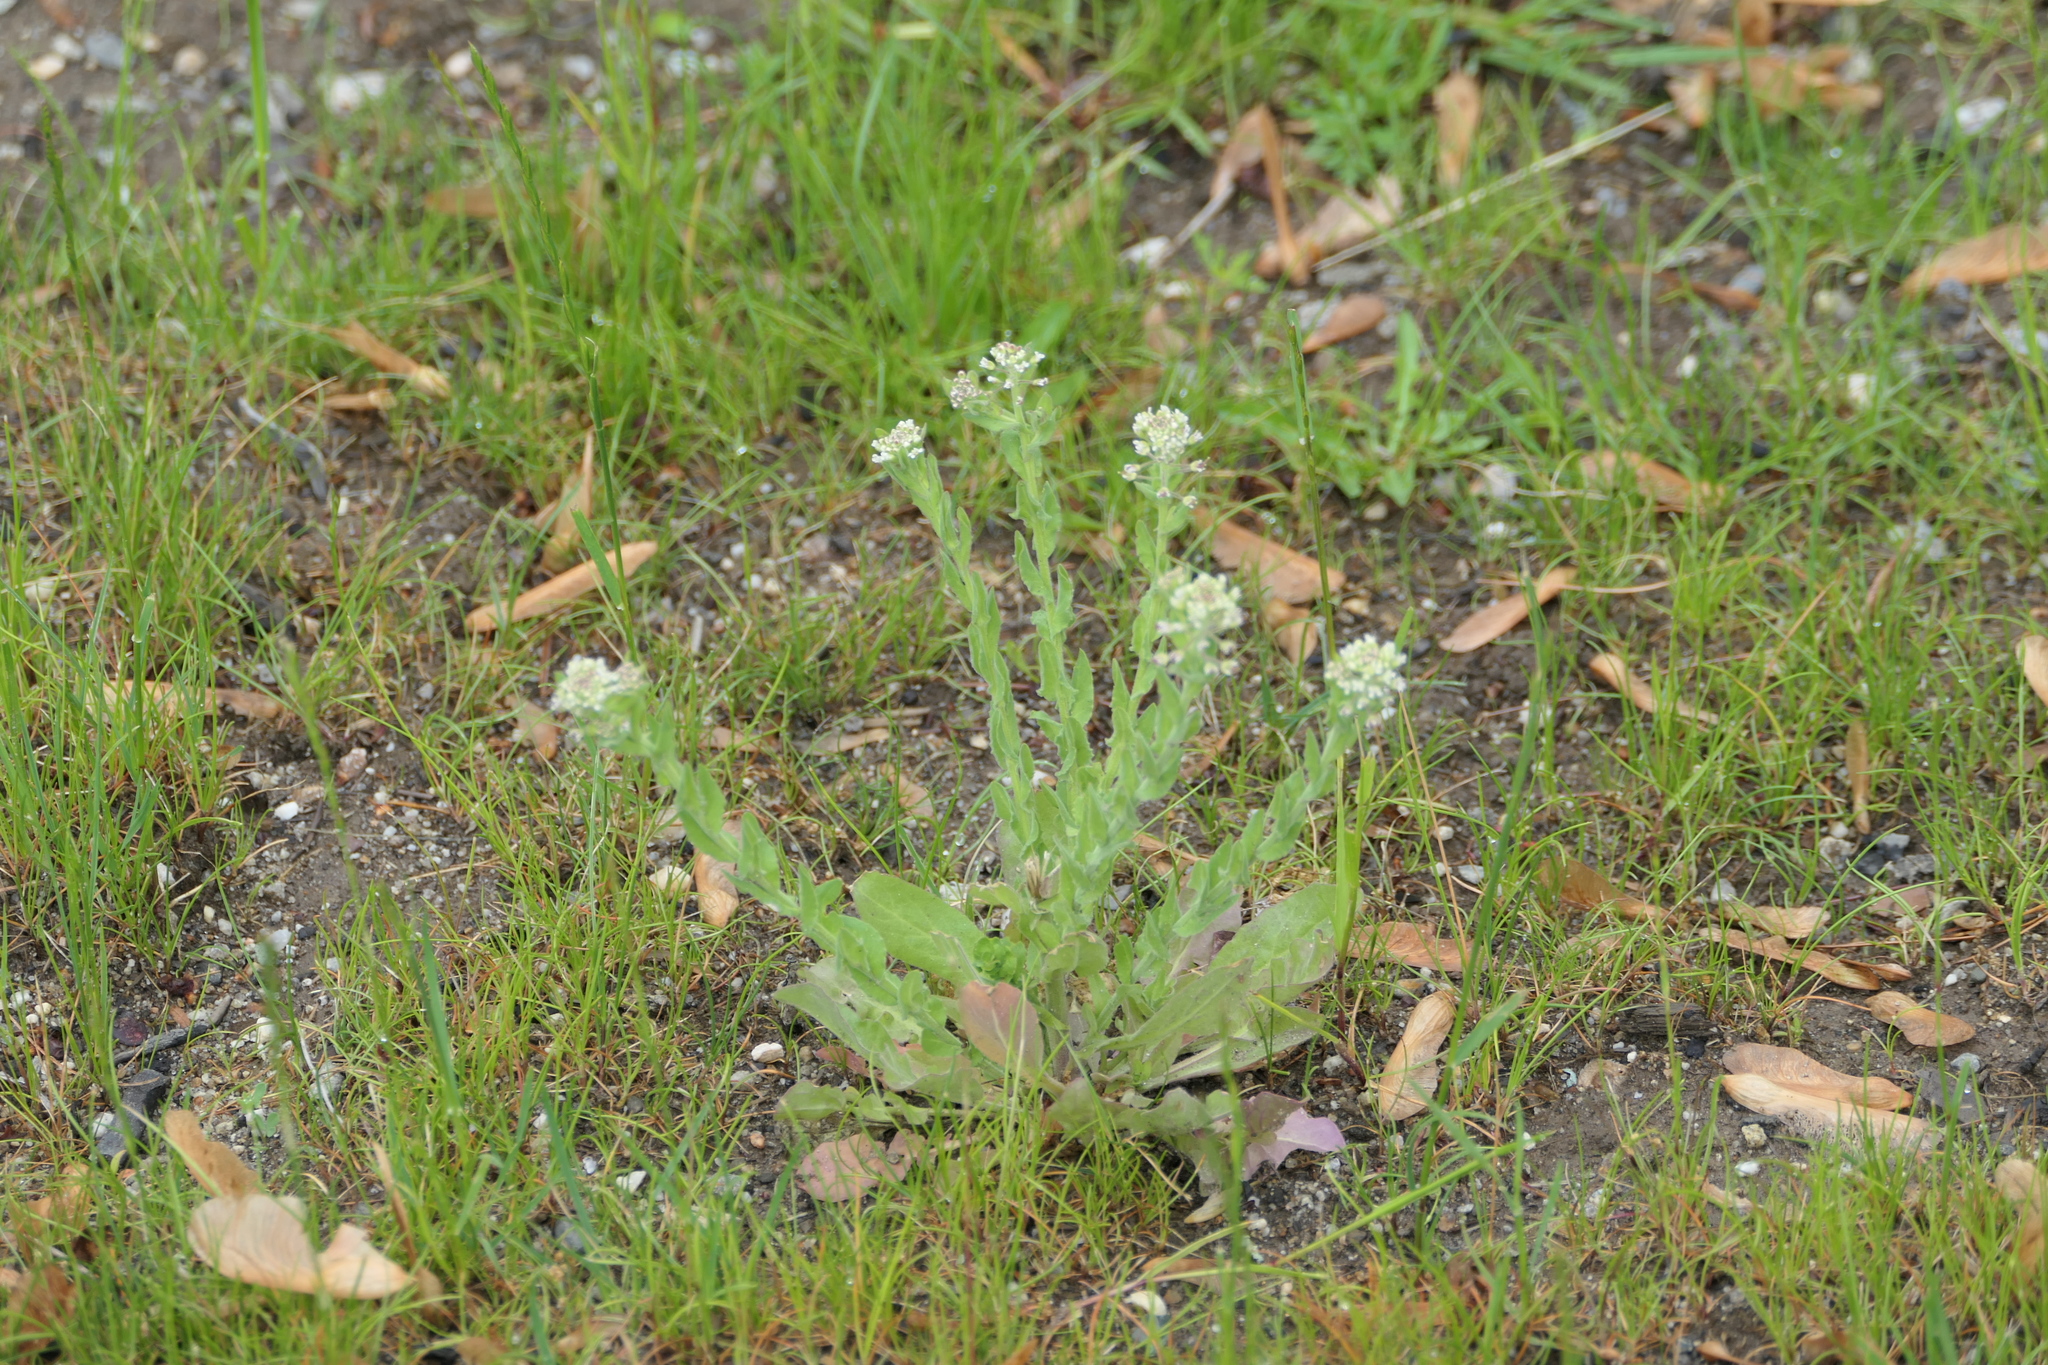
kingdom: Plantae
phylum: Tracheophyta
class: Magnoliopsida
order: Brassicales
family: Brassicaceae
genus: Lepidium
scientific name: Lepidium campestre
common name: Field pepperwort
